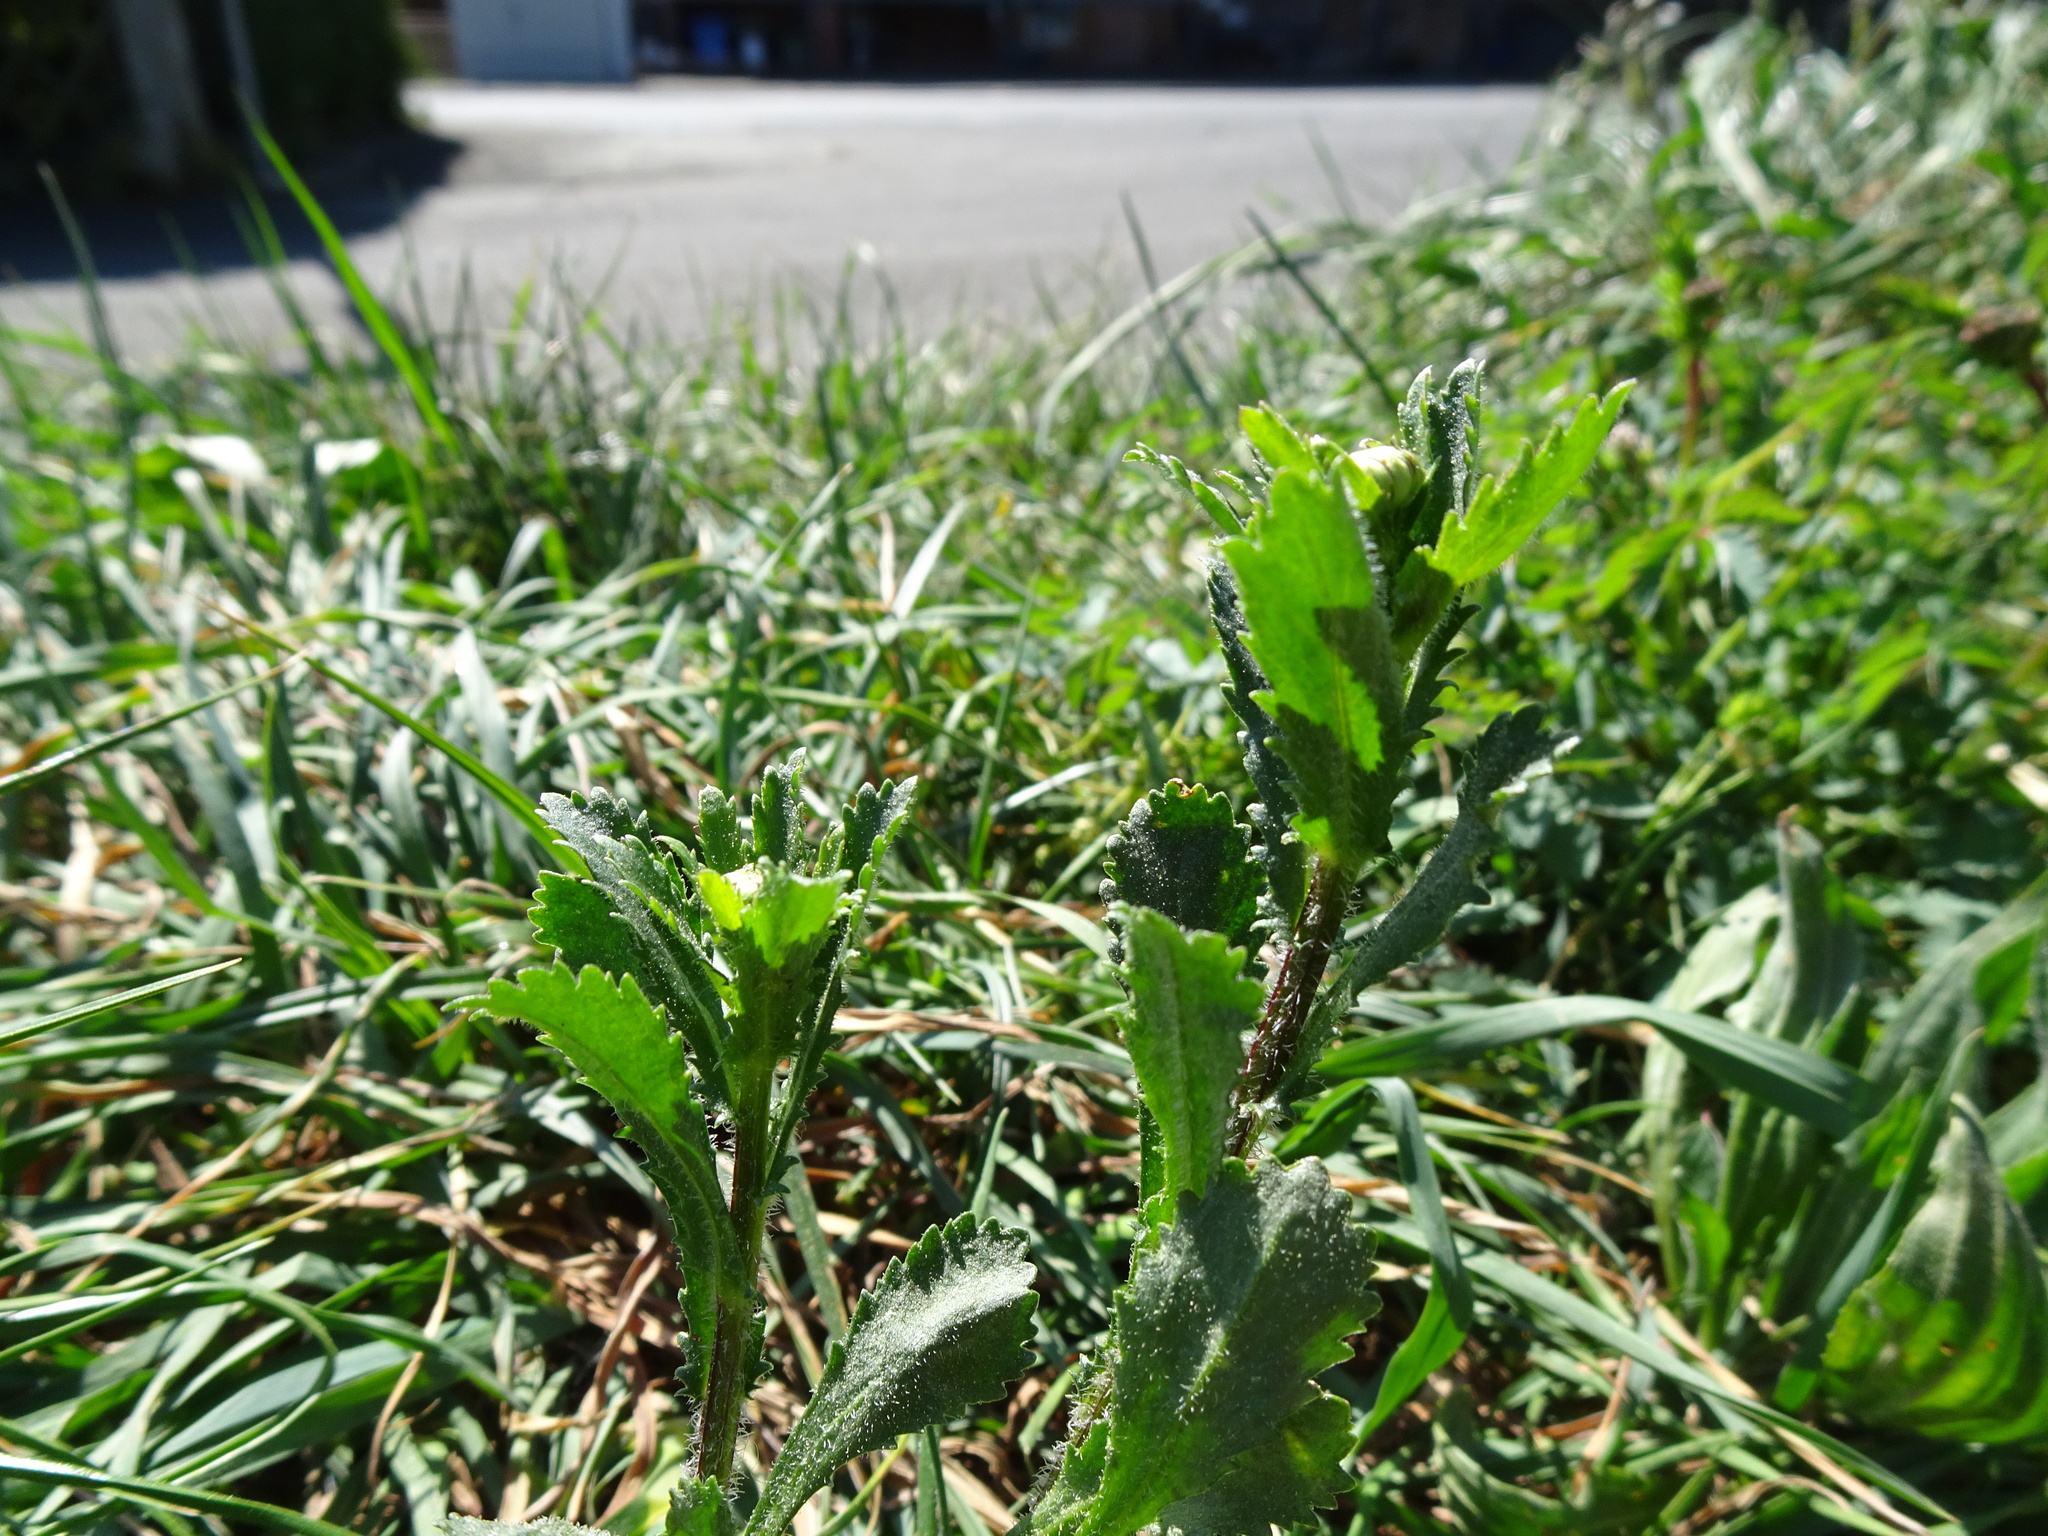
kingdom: Plantae
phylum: Tracheophyta
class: Magnoliopsida
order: Asterales
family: Asteraceae
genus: Leucanthemum
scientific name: Leucanthemum vulgare
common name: Oxeye daisy
